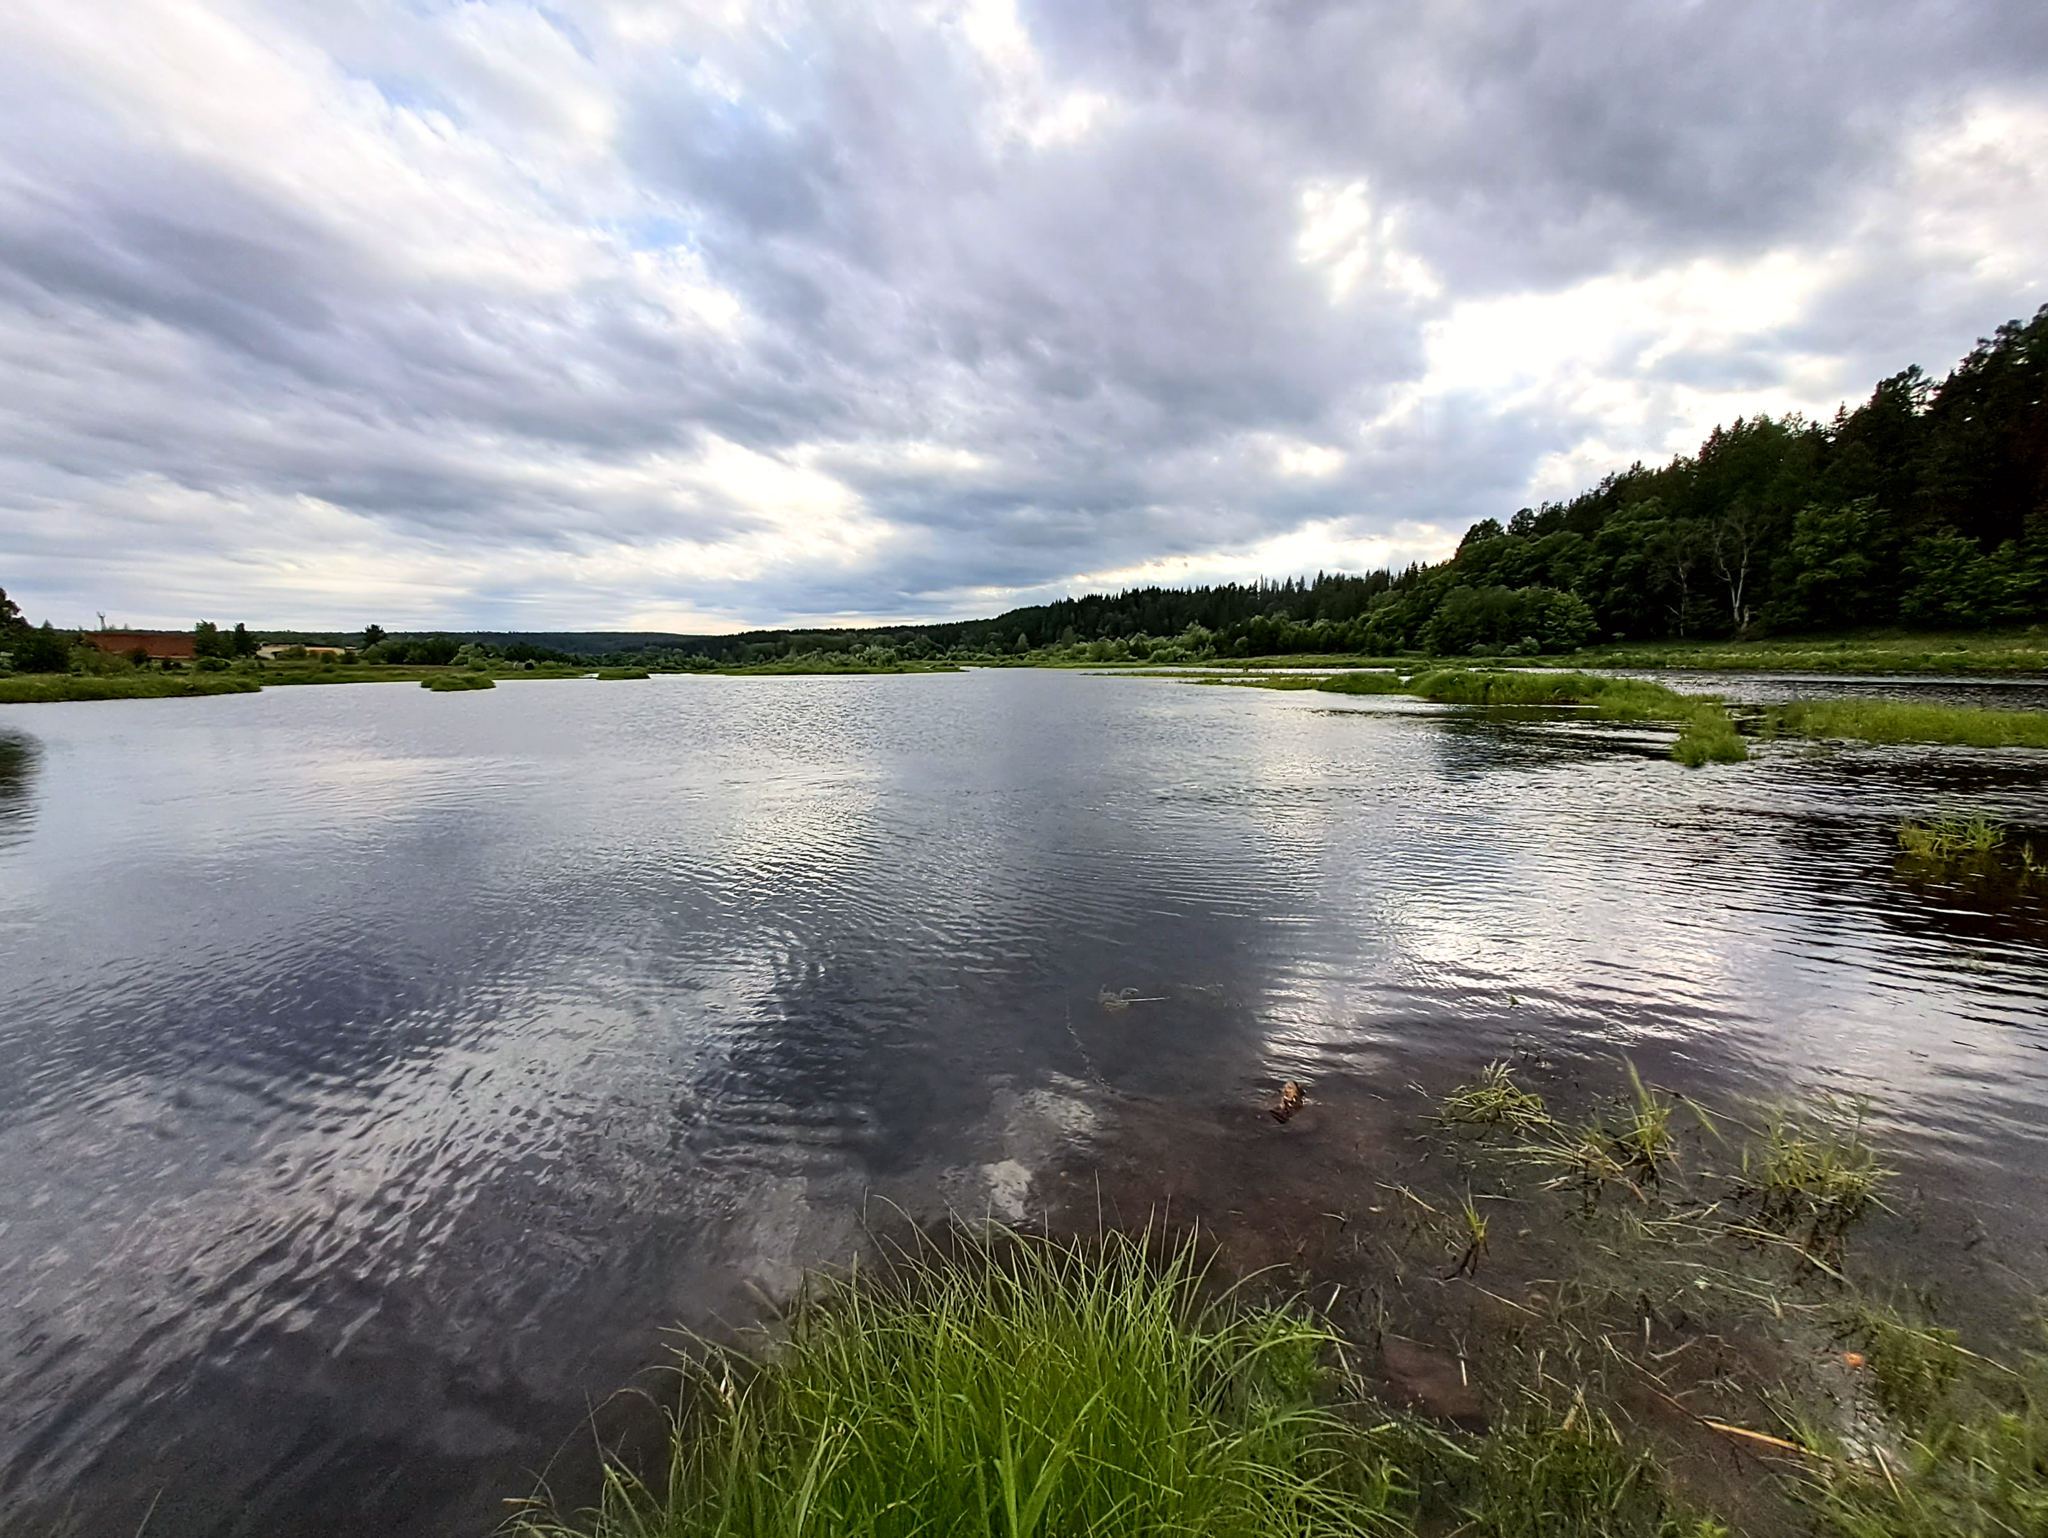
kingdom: Chromista
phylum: Cryptophyta
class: Cryptophyceae
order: Cryptomonadales
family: Cryptomonadaceae
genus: Goniomonas
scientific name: Goniomonas truncata
